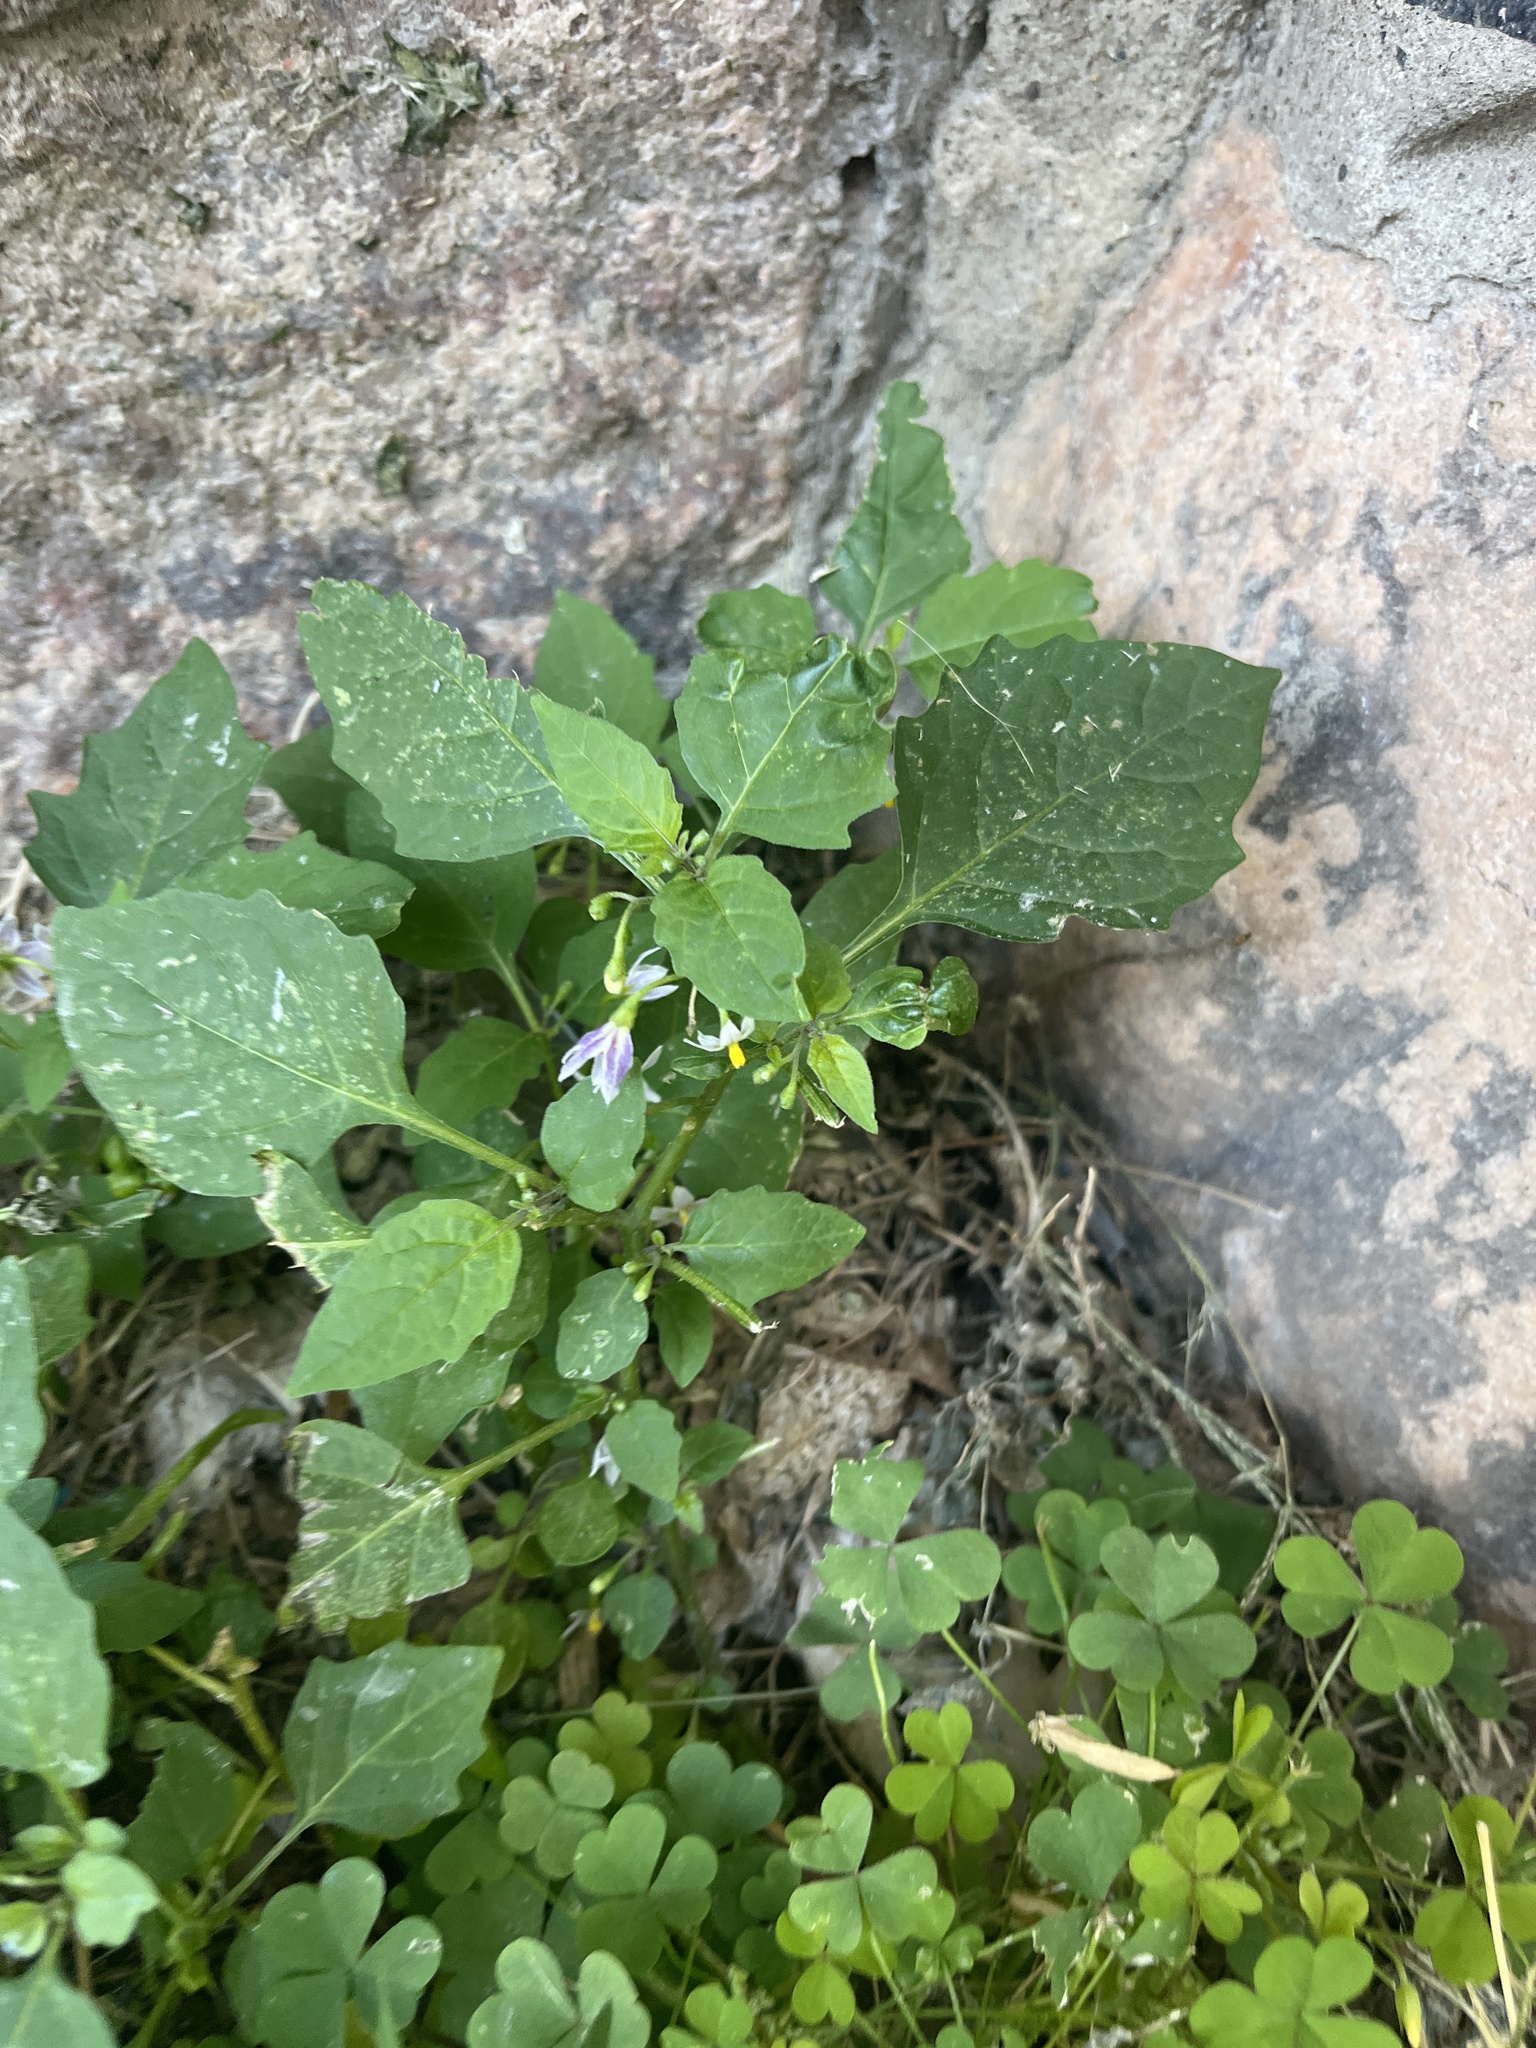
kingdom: Plantae
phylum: Tracheophyta
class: Magnoliopsida
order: Solanales
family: Solanaceae
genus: Solanum
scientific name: Solanum emulans
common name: Eastern black nightshade
